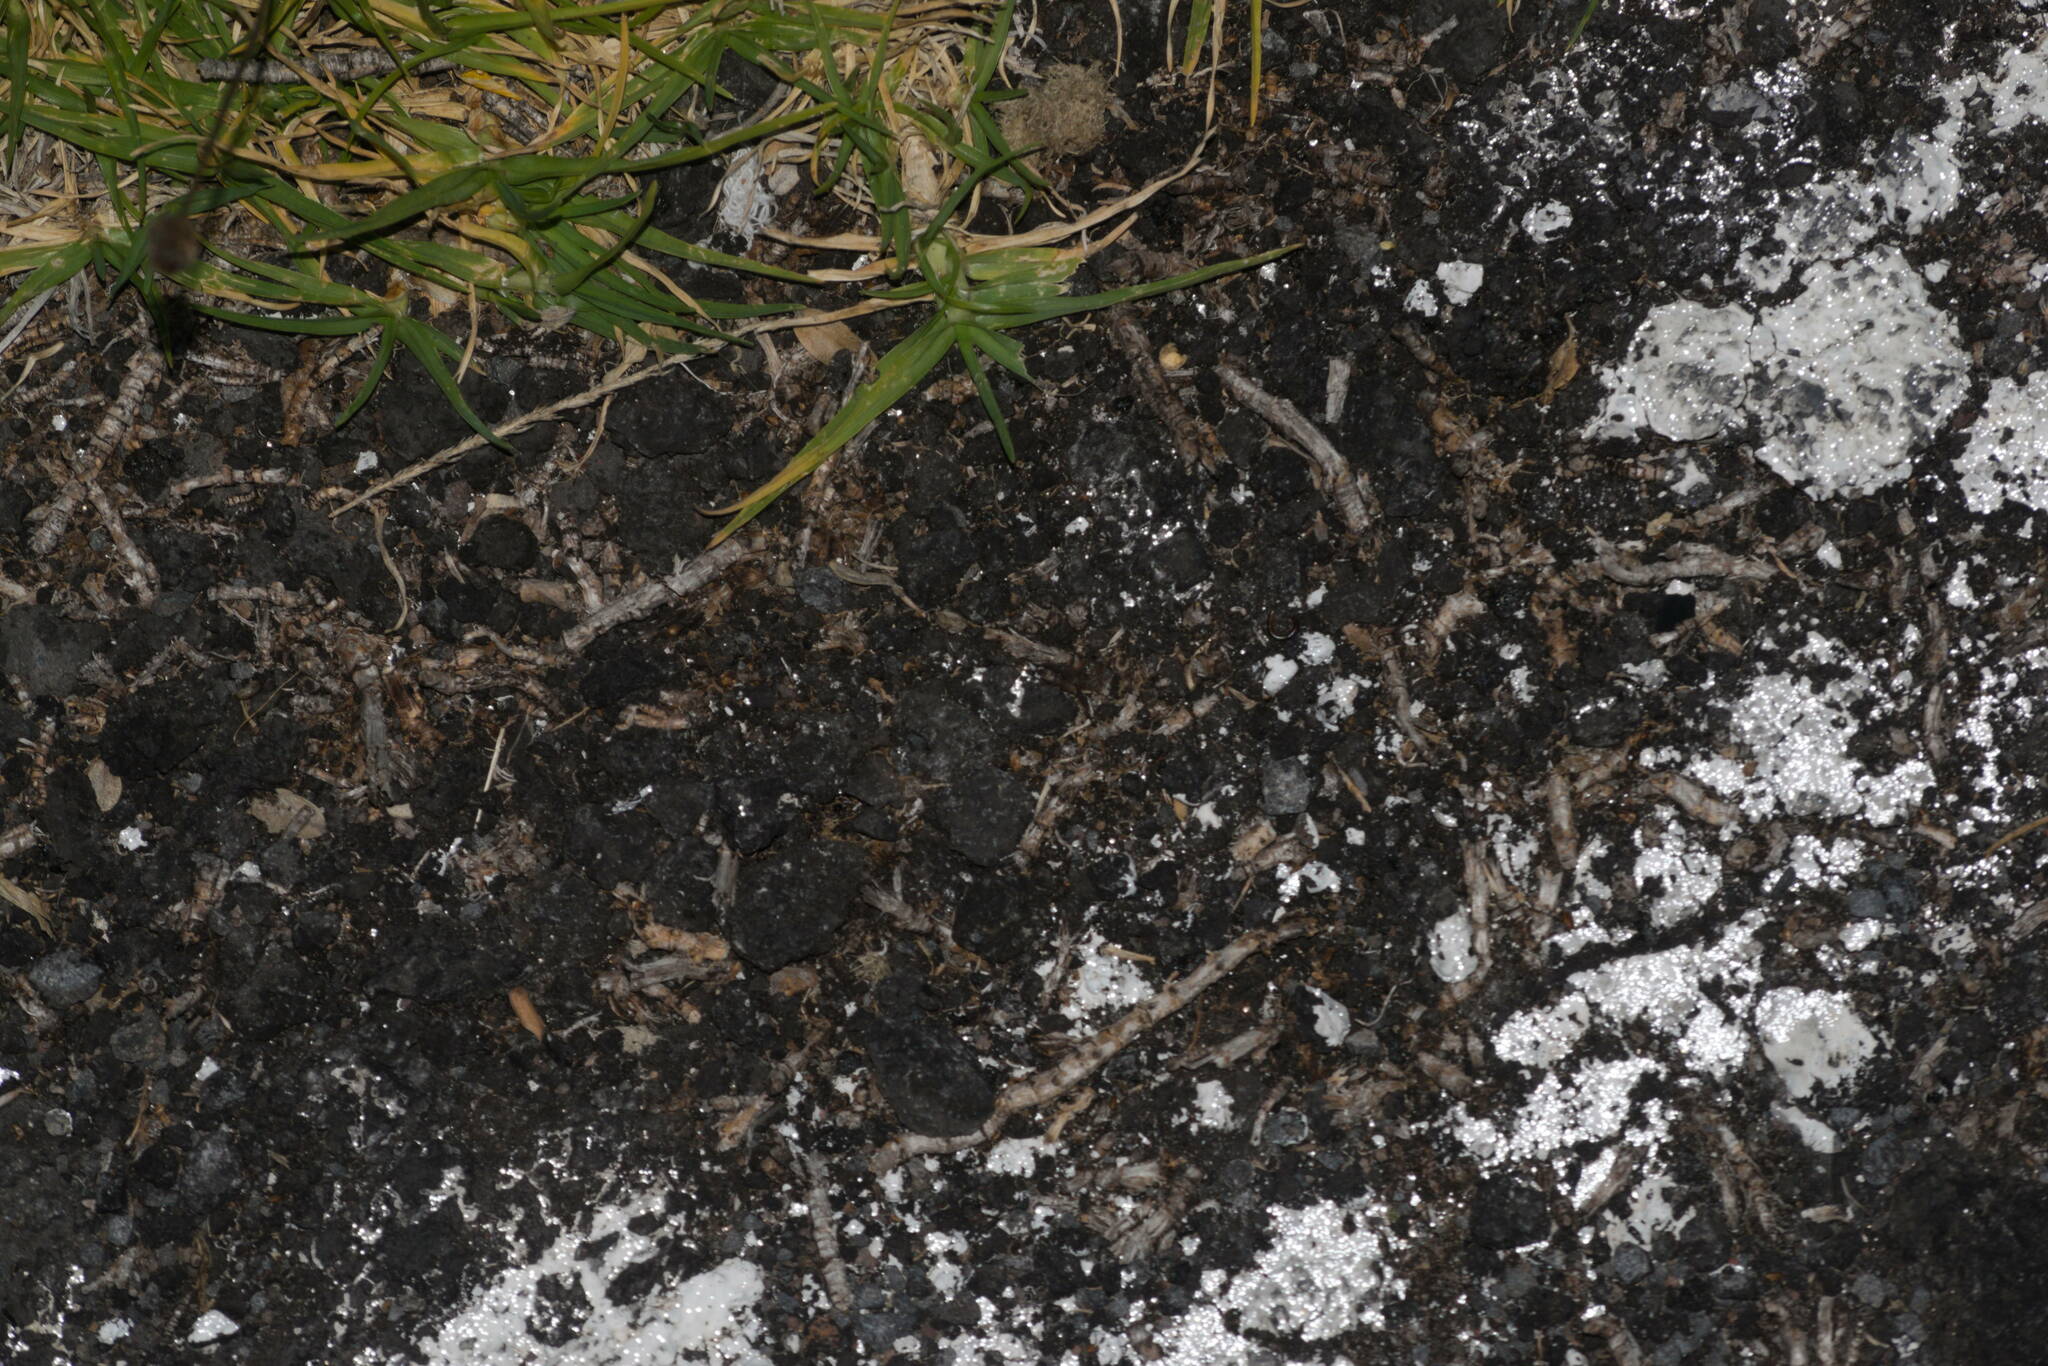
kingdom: Plantae
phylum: Tracheophyta
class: Liliopsida
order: Poales
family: Poaceae
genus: Cenchrus
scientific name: Cenchrus clandestinus
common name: Kikuyugrass
